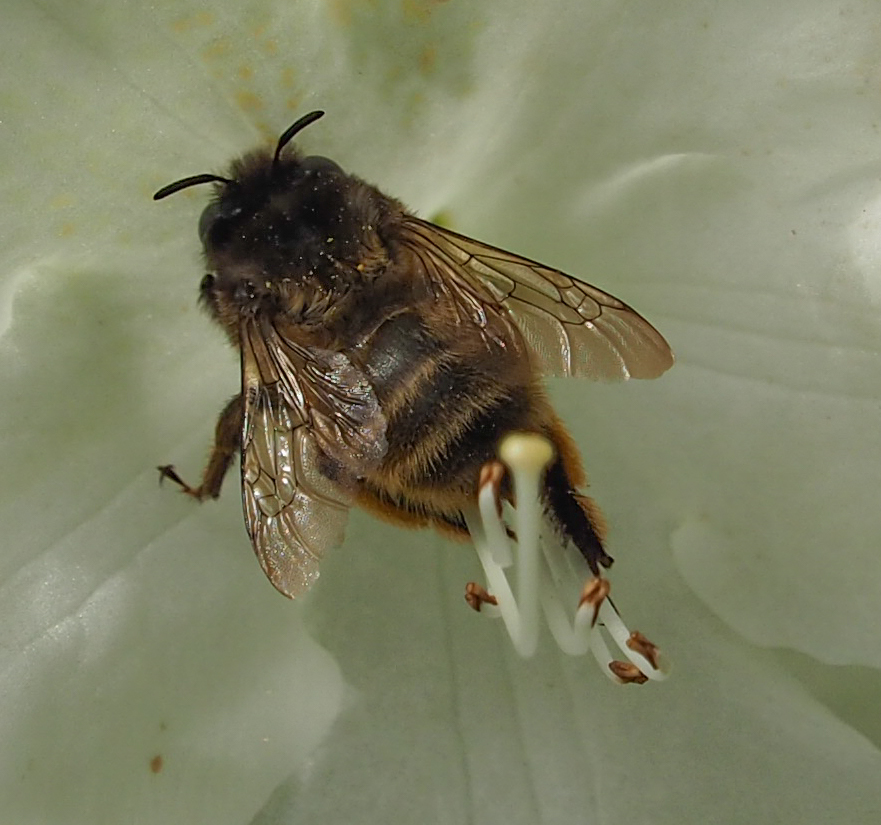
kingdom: Animalia
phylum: Arthropoda
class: Insecta
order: Hymenoptera
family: Apidae
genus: Anthophora
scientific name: Anthophora villosula
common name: Asian shaggy digger
